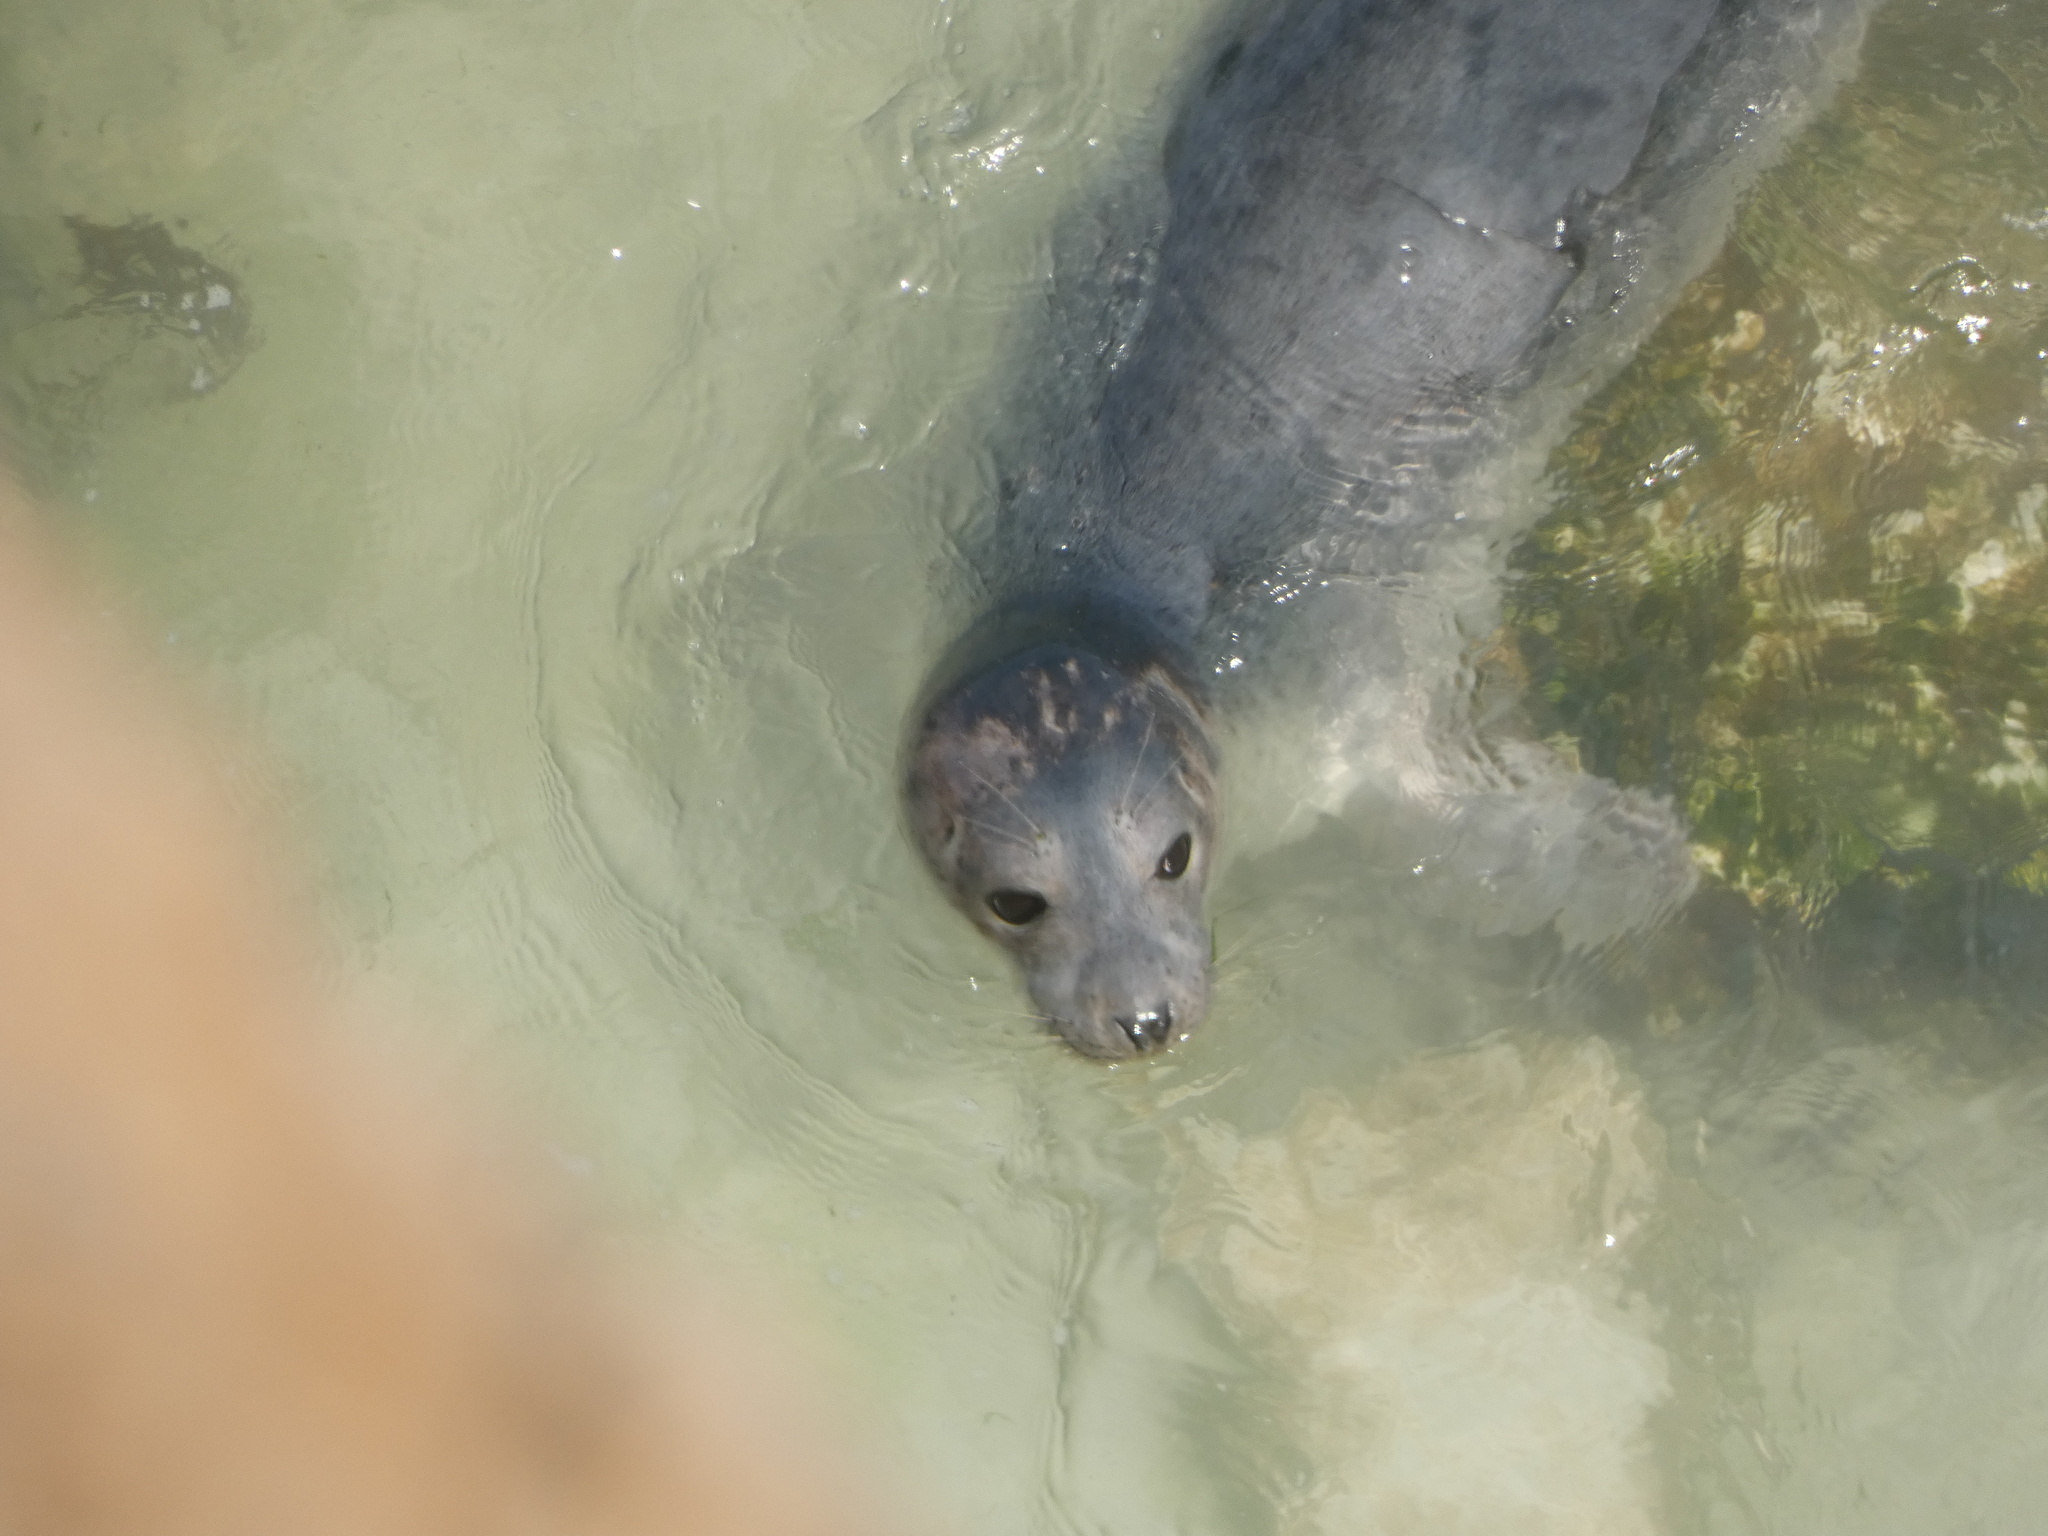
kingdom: Animalia
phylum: Chordata
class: Mammalia
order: Carnivora
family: Phocidae
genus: Halichoerus
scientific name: Halichoerus grypus
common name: Grey seal
